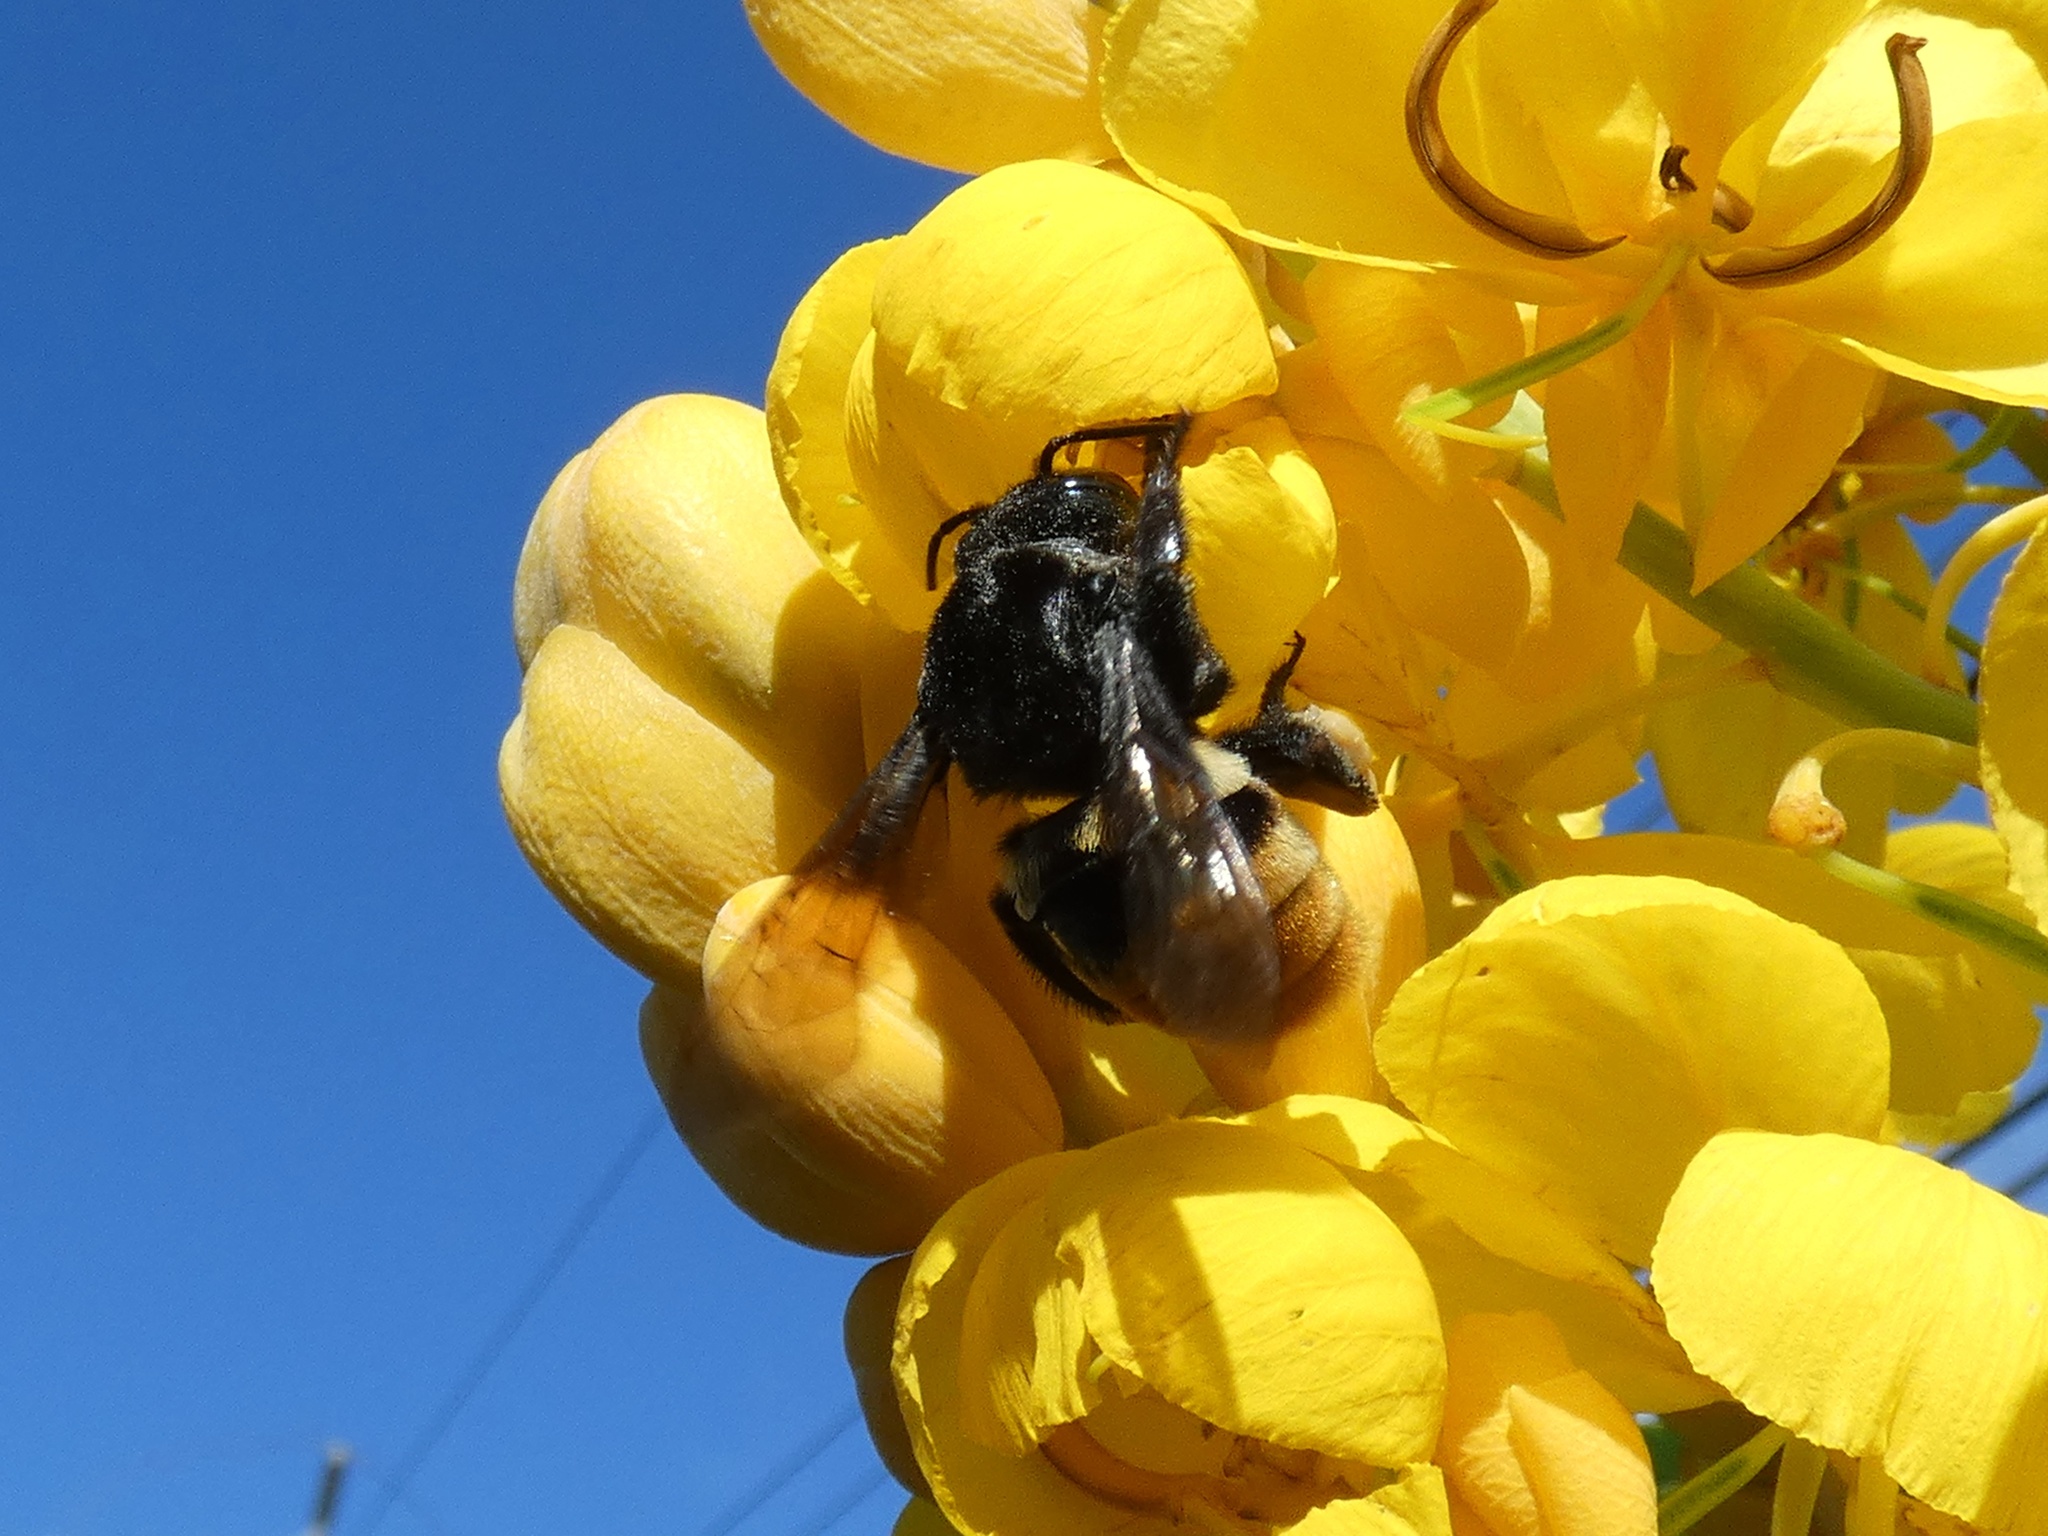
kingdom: Animalia
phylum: Arthropoda
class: Insecta
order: Hymenoptera
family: Apidae
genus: Eulaema
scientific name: Eulaema cingulata
